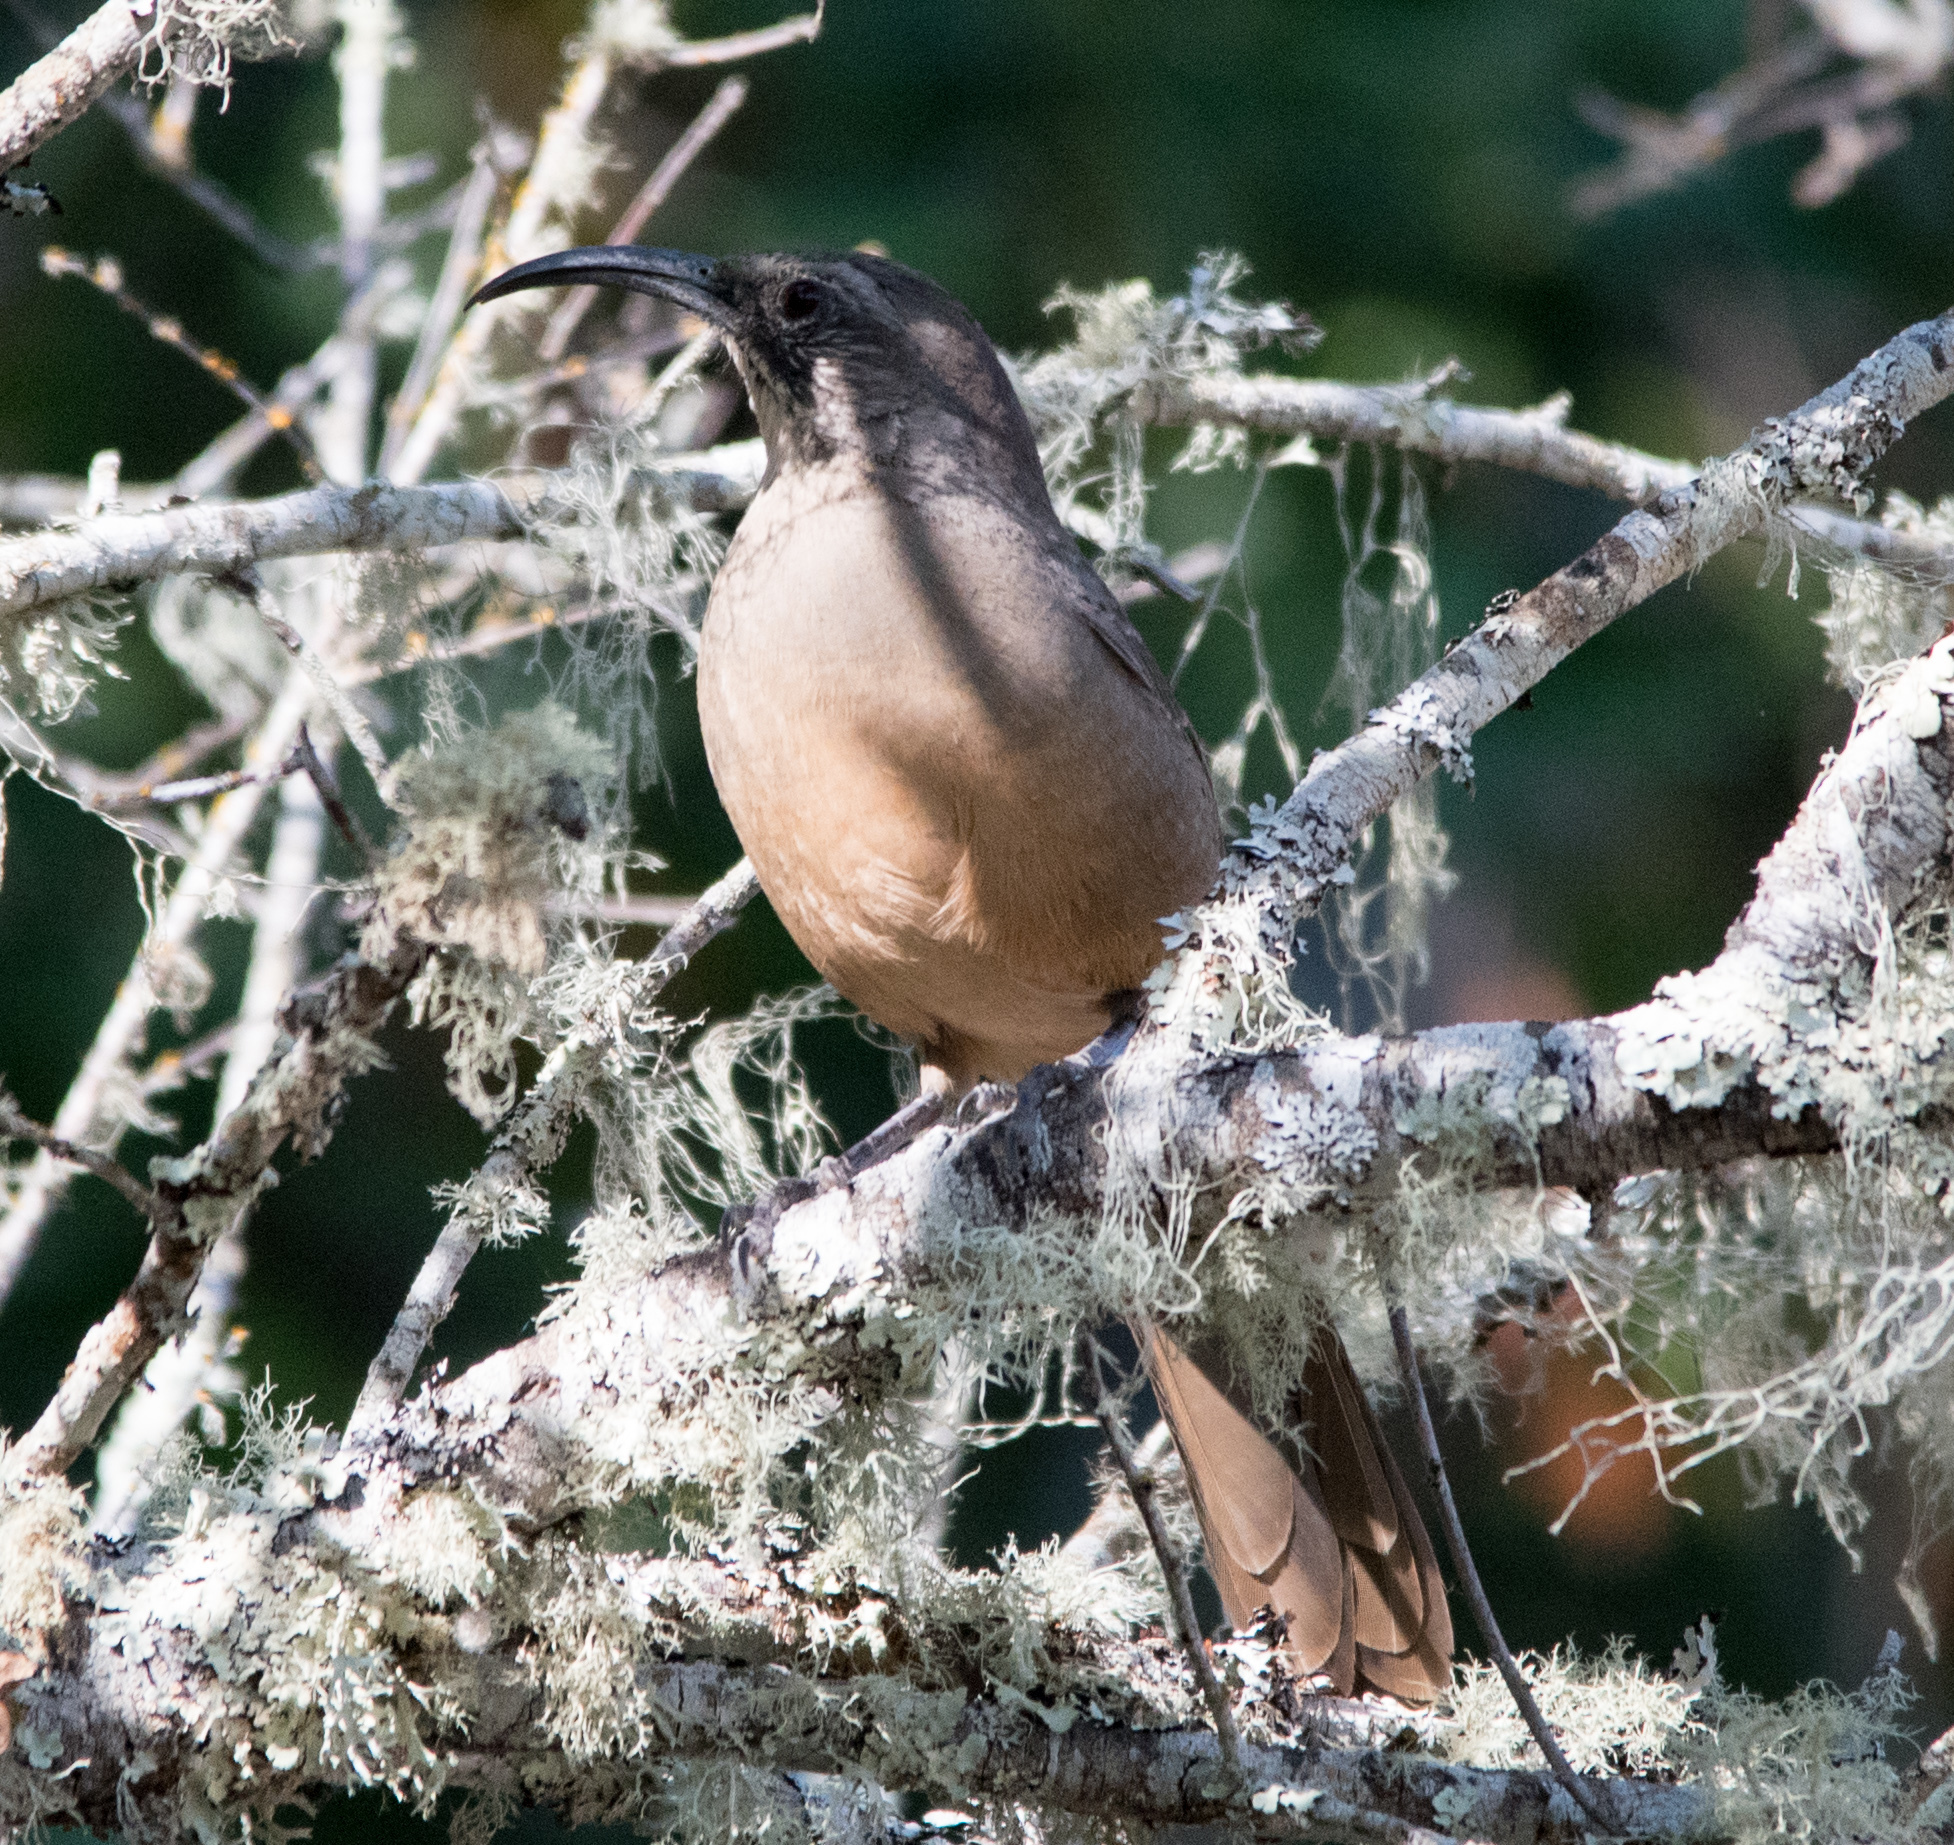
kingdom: Animalia
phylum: Chordata
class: Aves
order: Passeriformes
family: Mimidae
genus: Toxostoma
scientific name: Toxostoma redivivum
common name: California thrasher
